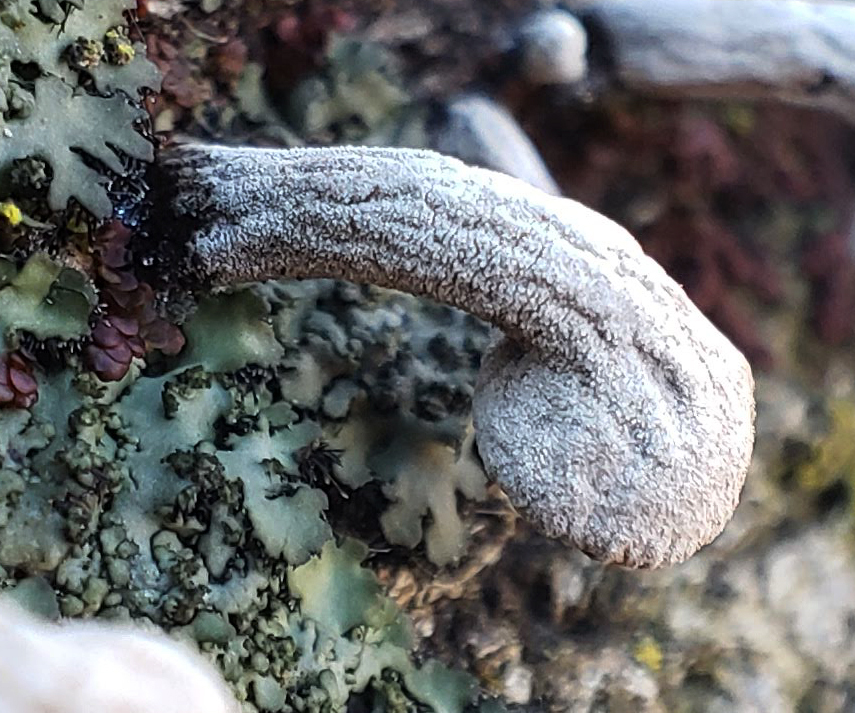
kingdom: Fungi
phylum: Basidiomycota
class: Agaricomycetes
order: Agaricales
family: Schizophyllaceae
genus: Porodisculus
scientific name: Porodisculus pendulus
